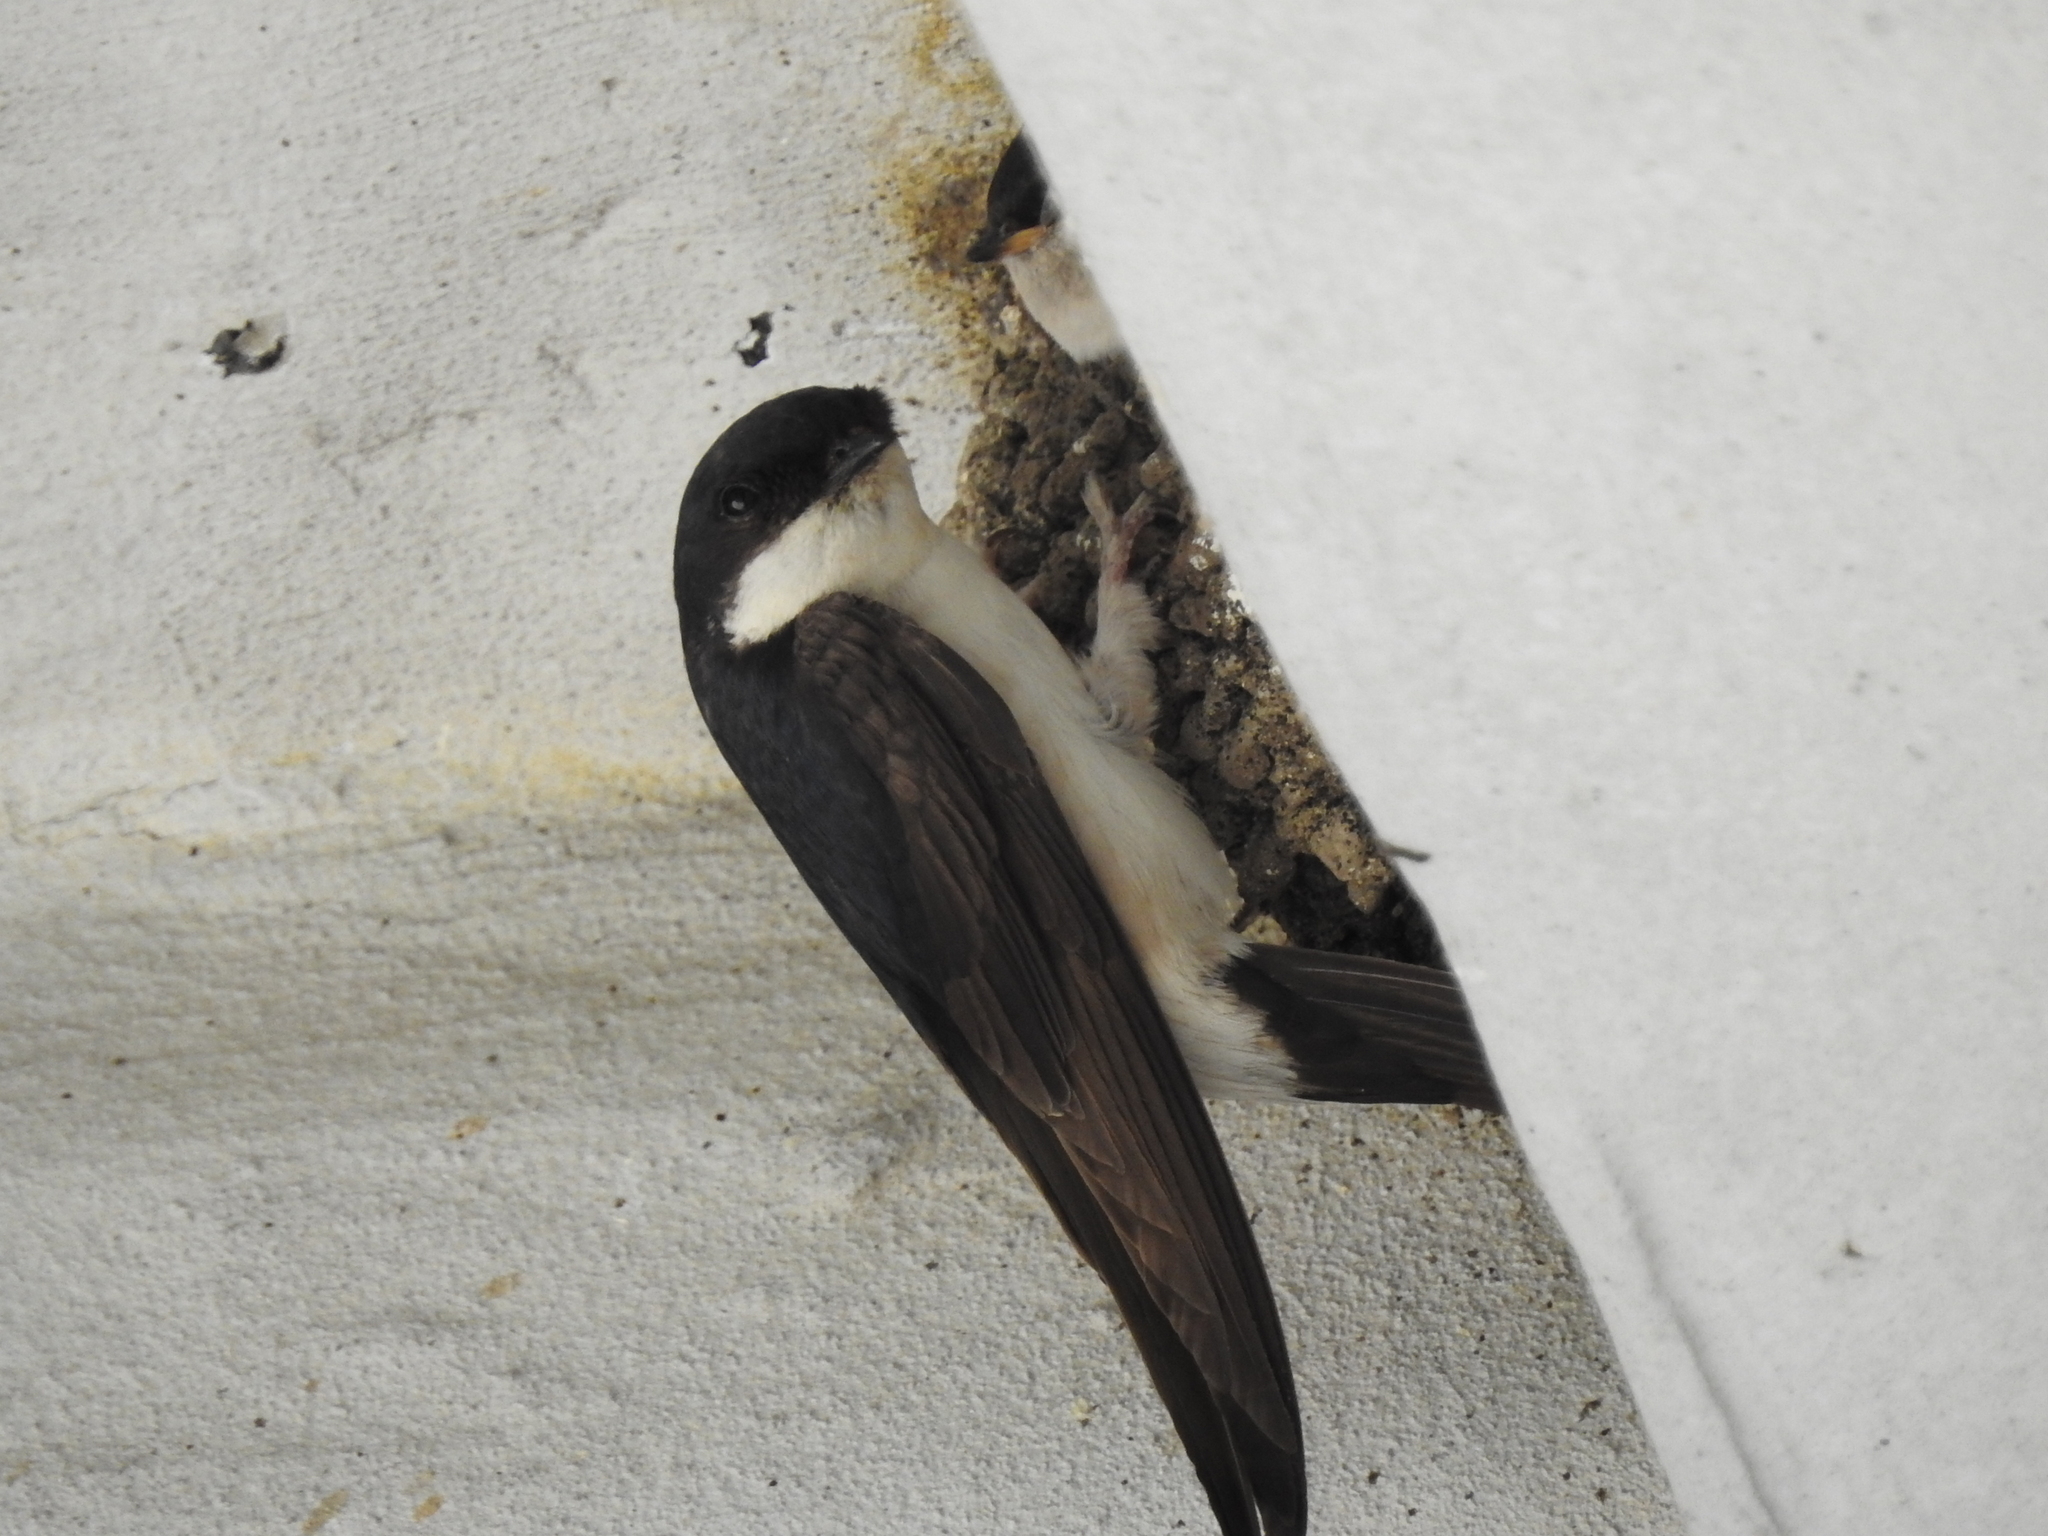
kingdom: Animalia
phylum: Chordata
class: Aves
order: Passeriformes
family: Hirundinidae
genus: Delichon
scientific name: Delichon urbicum
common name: Common house martin
